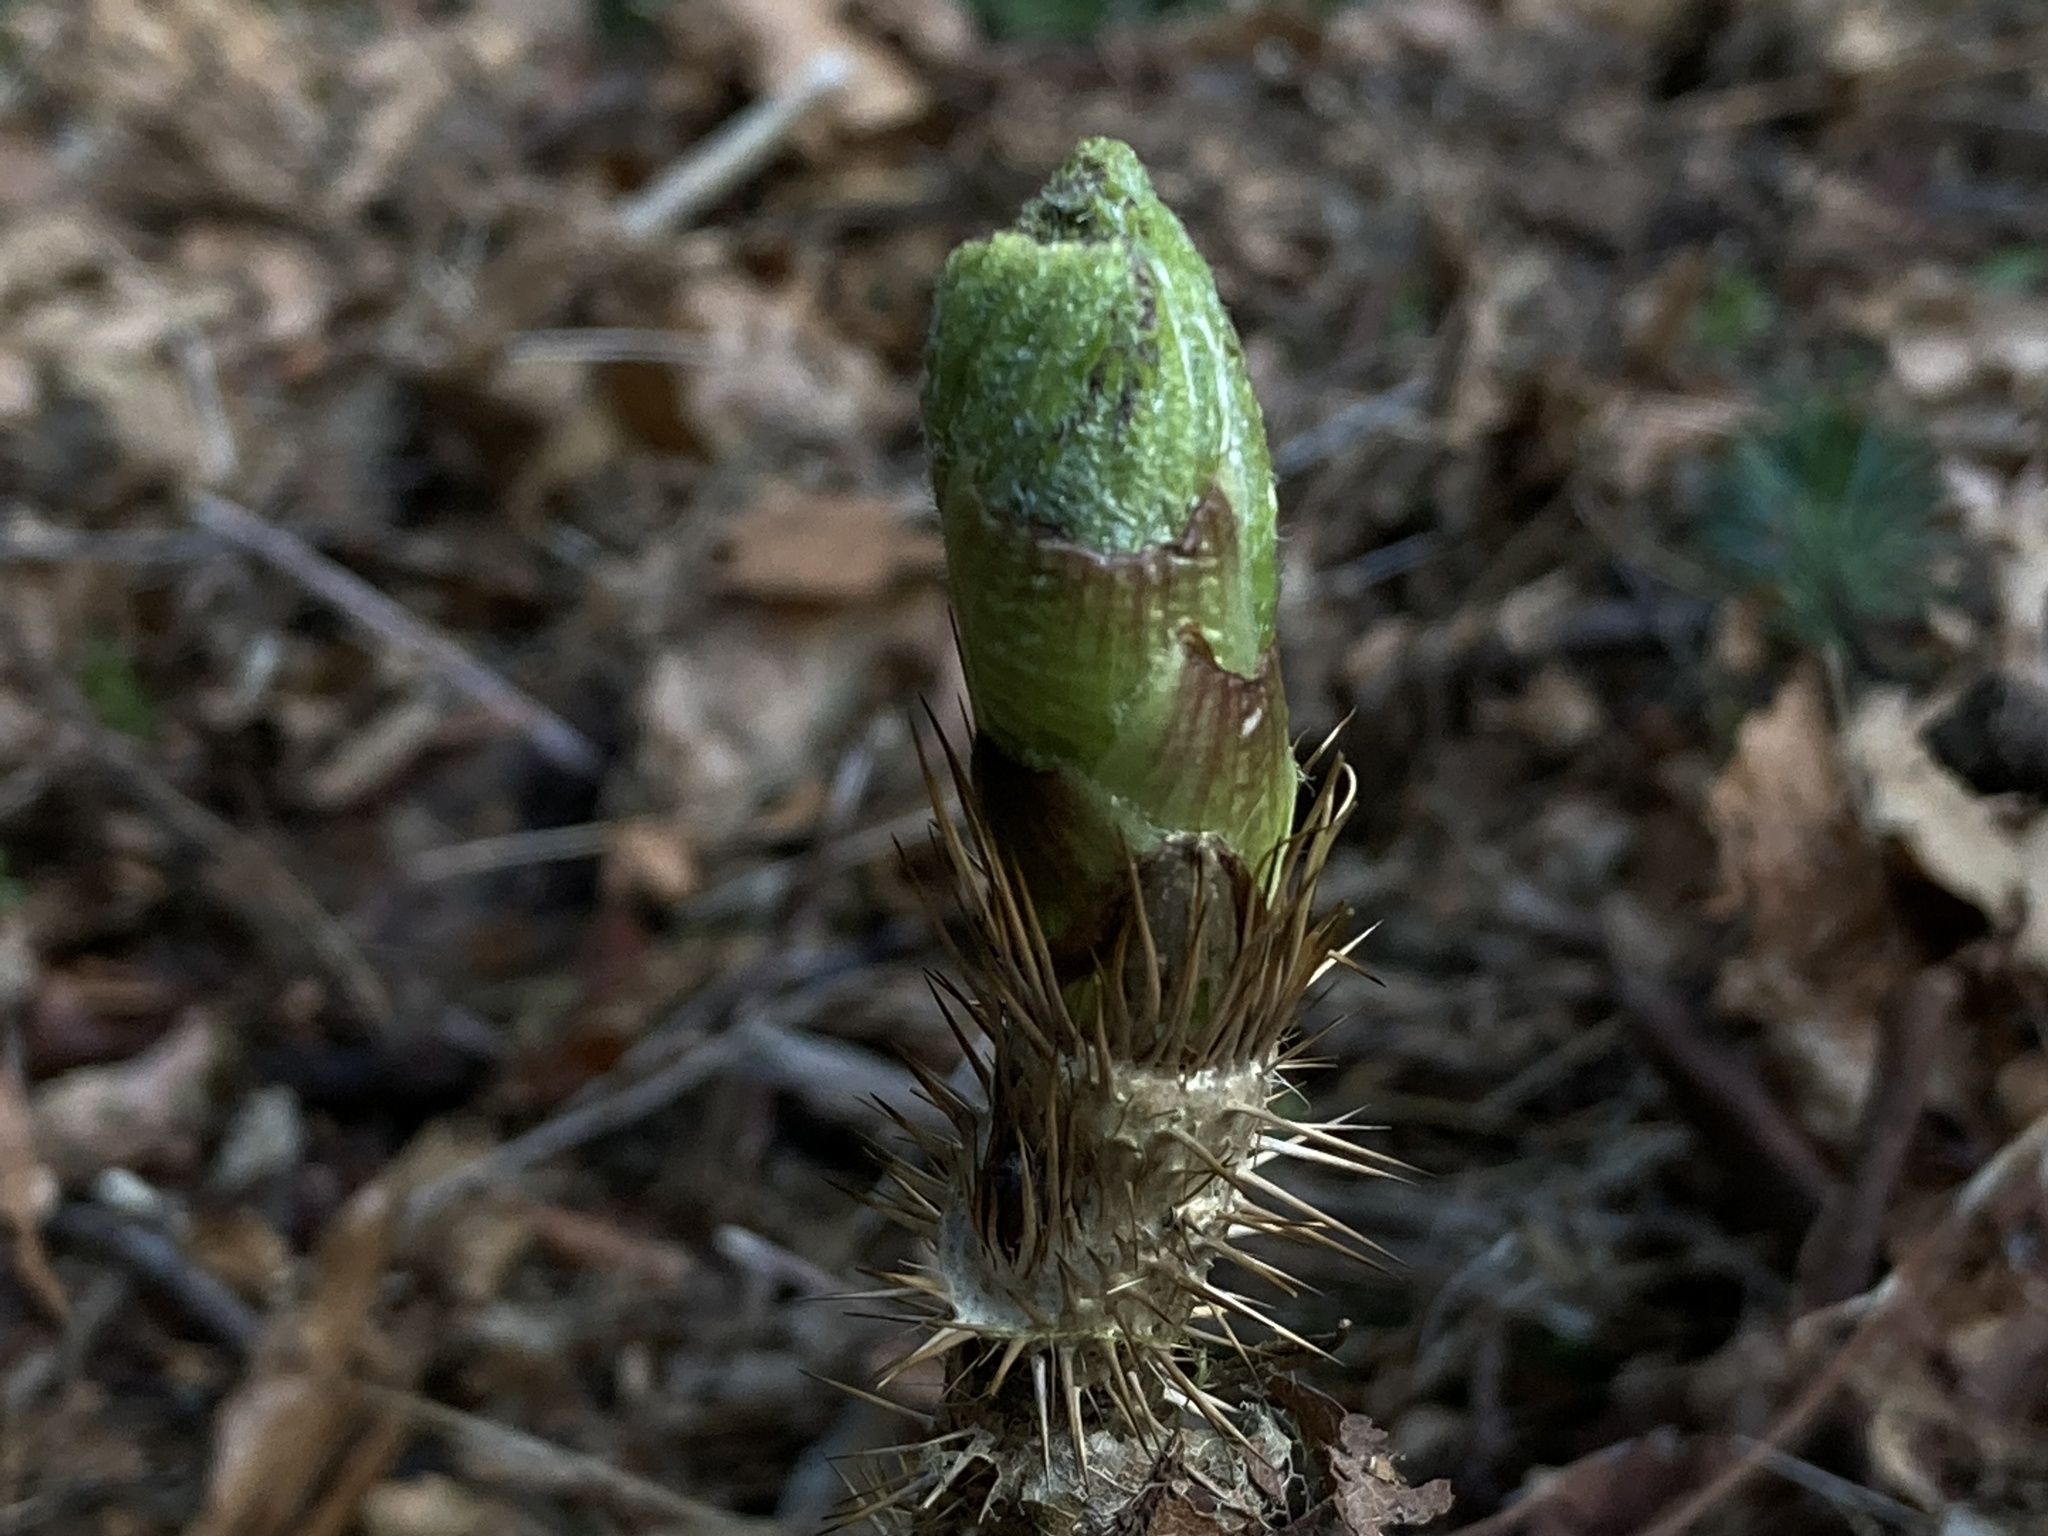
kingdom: Plantae
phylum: Tracheophyta
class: Magnoliopsida
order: Apiales
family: Araliaceae
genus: Oplopanax
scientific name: Oplopanax horridus
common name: Devil's walking-stick
